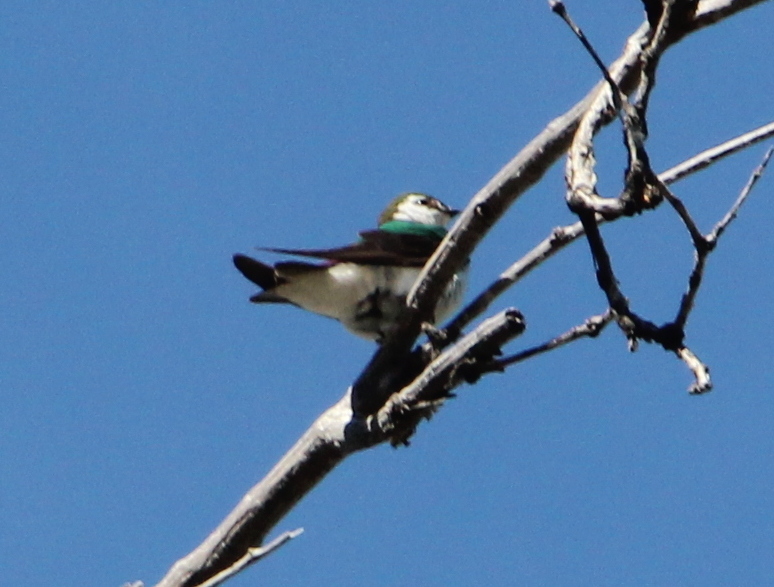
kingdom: Animalia
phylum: Chordata
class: Aves
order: Passeriformes
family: Hirundinidae
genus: Tachycineta
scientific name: Tachycineta thalassina
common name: Violet-green swallow
